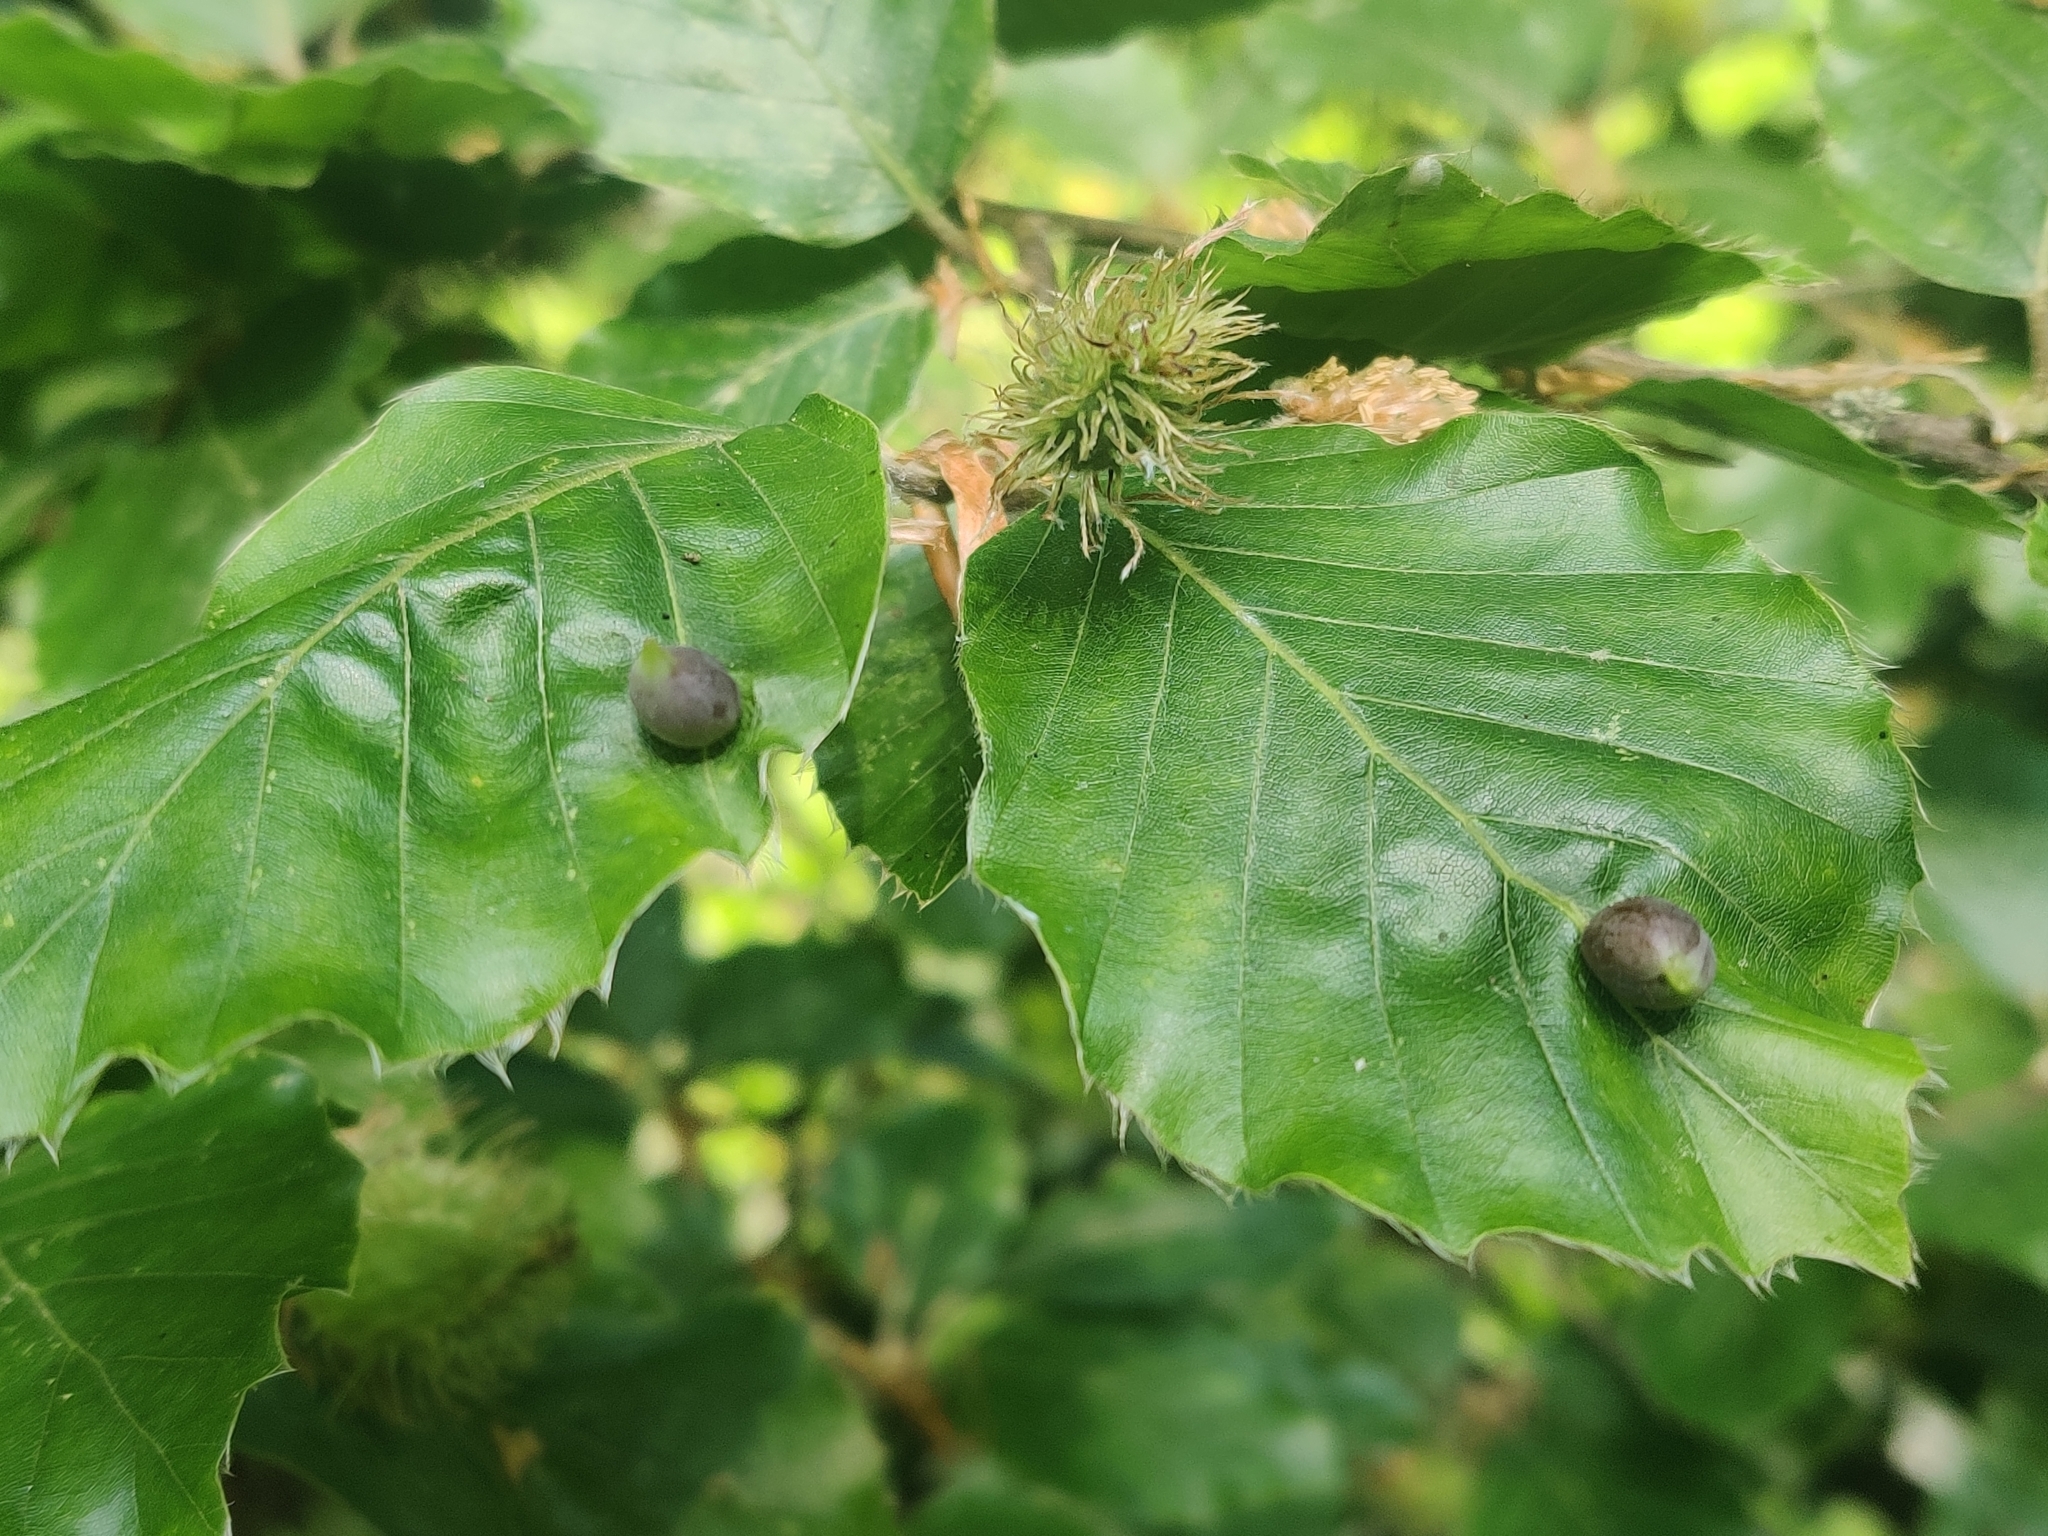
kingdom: Animalia
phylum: Arthropoda
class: Insecta
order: Diptera
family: Cecidomyiidae
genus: Mikiola
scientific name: Mikiola fagi
